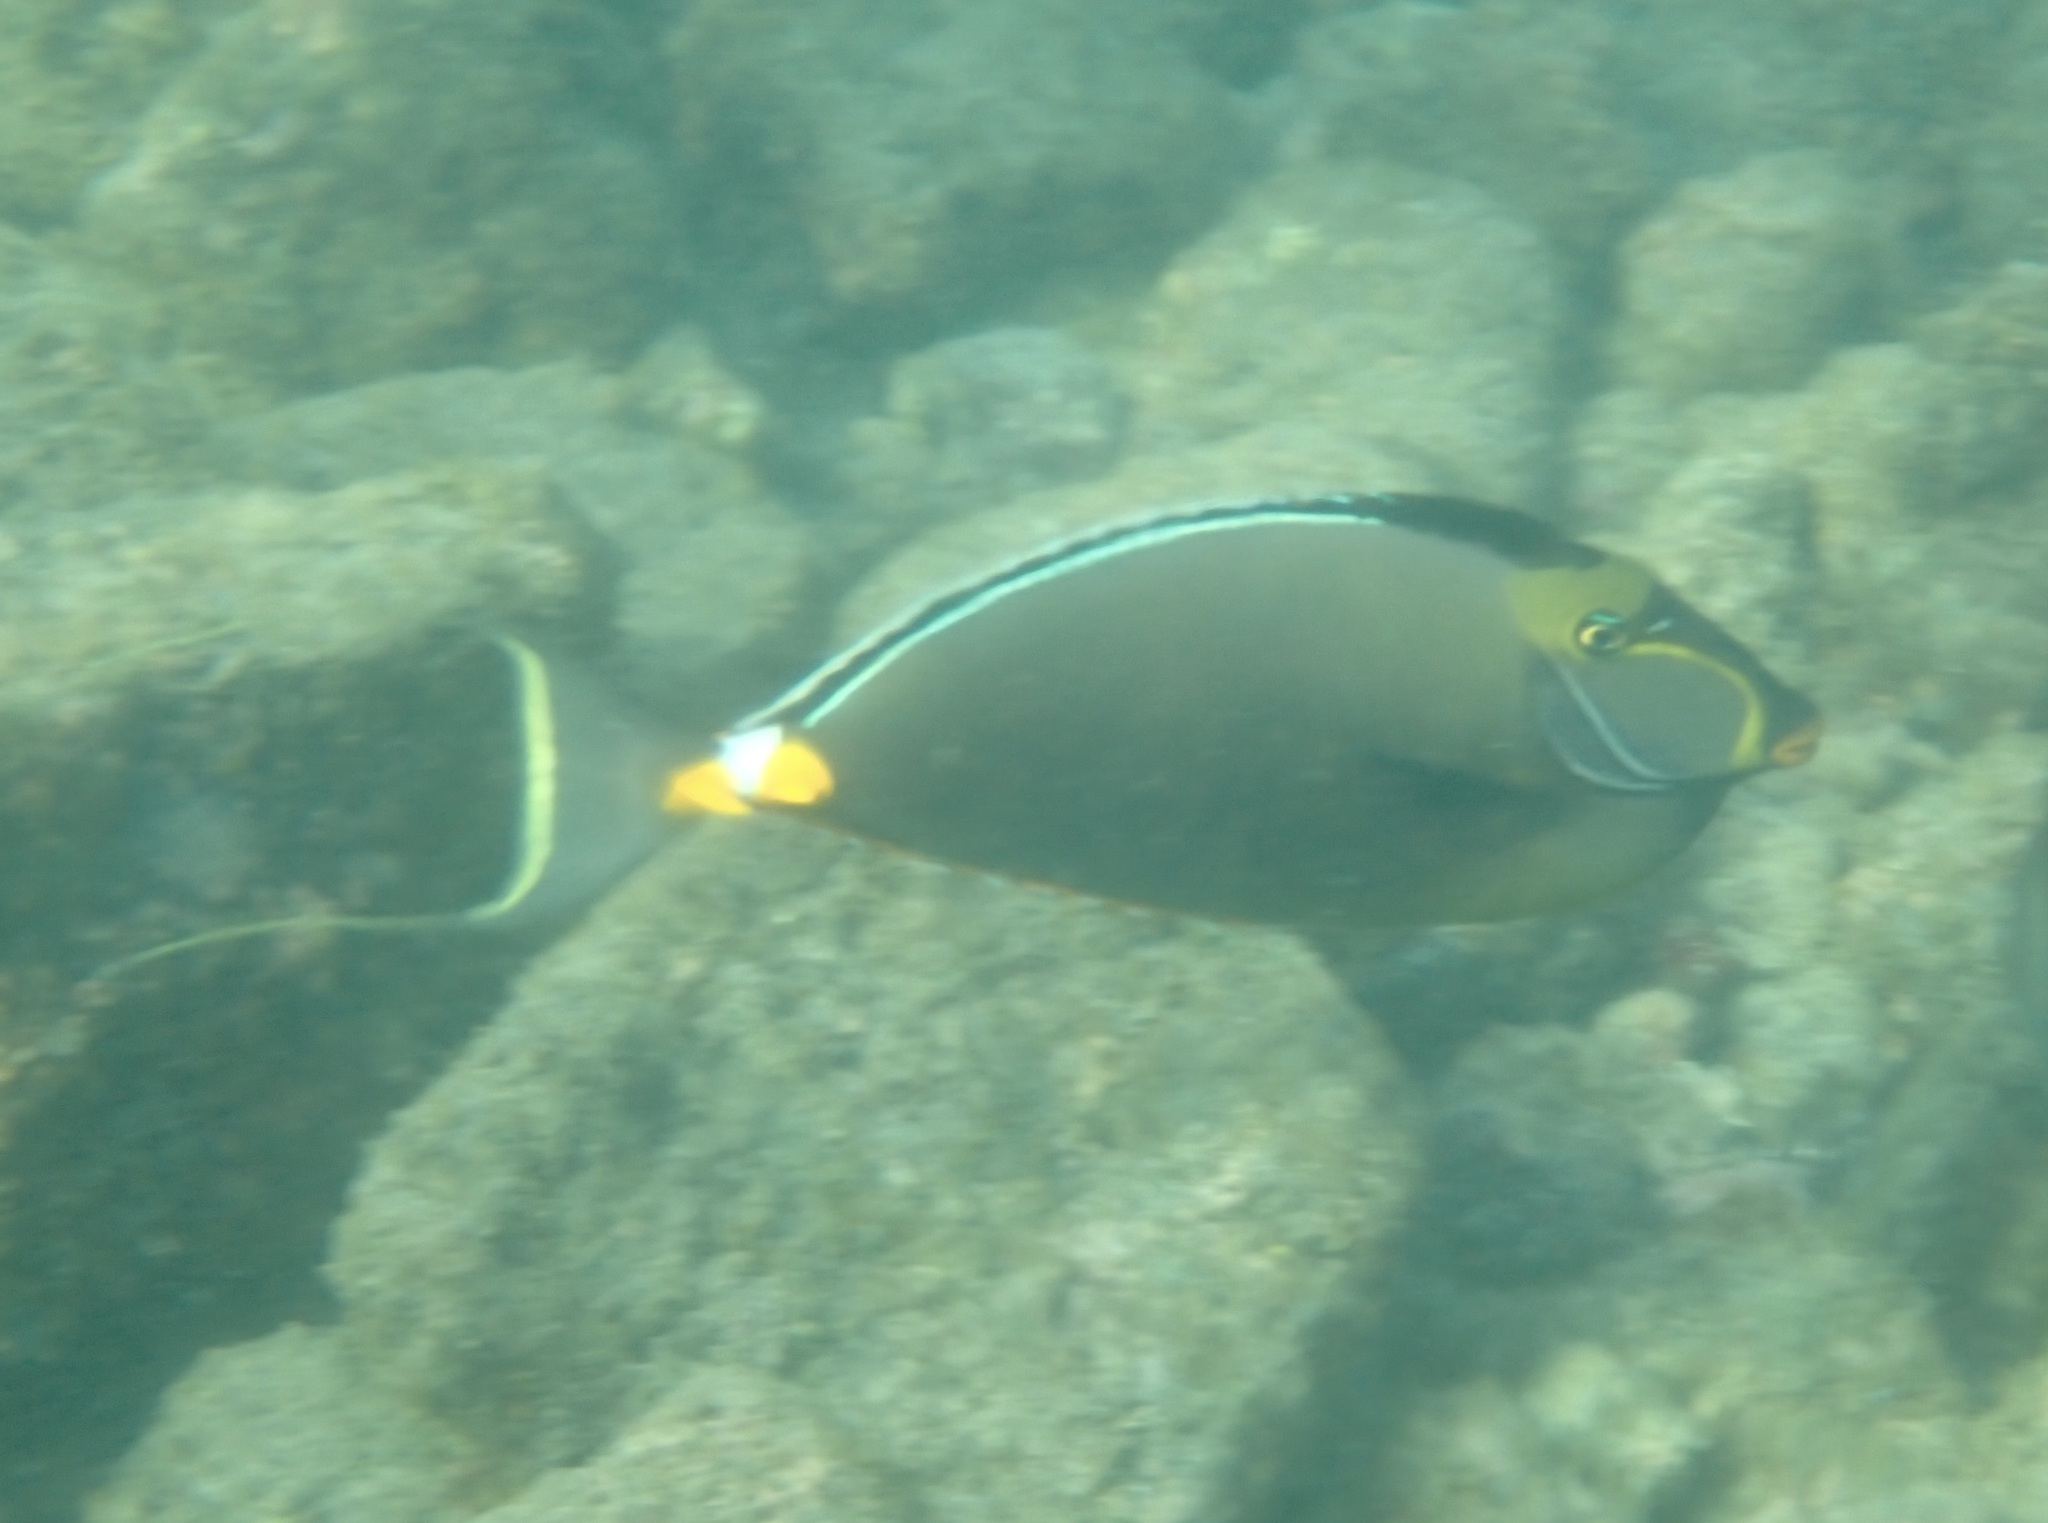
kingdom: Animalia
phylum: Chordata
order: Perciformes
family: Acanthuridae
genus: Naso
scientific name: Naso lituratus
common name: Orangespine unicornfish
